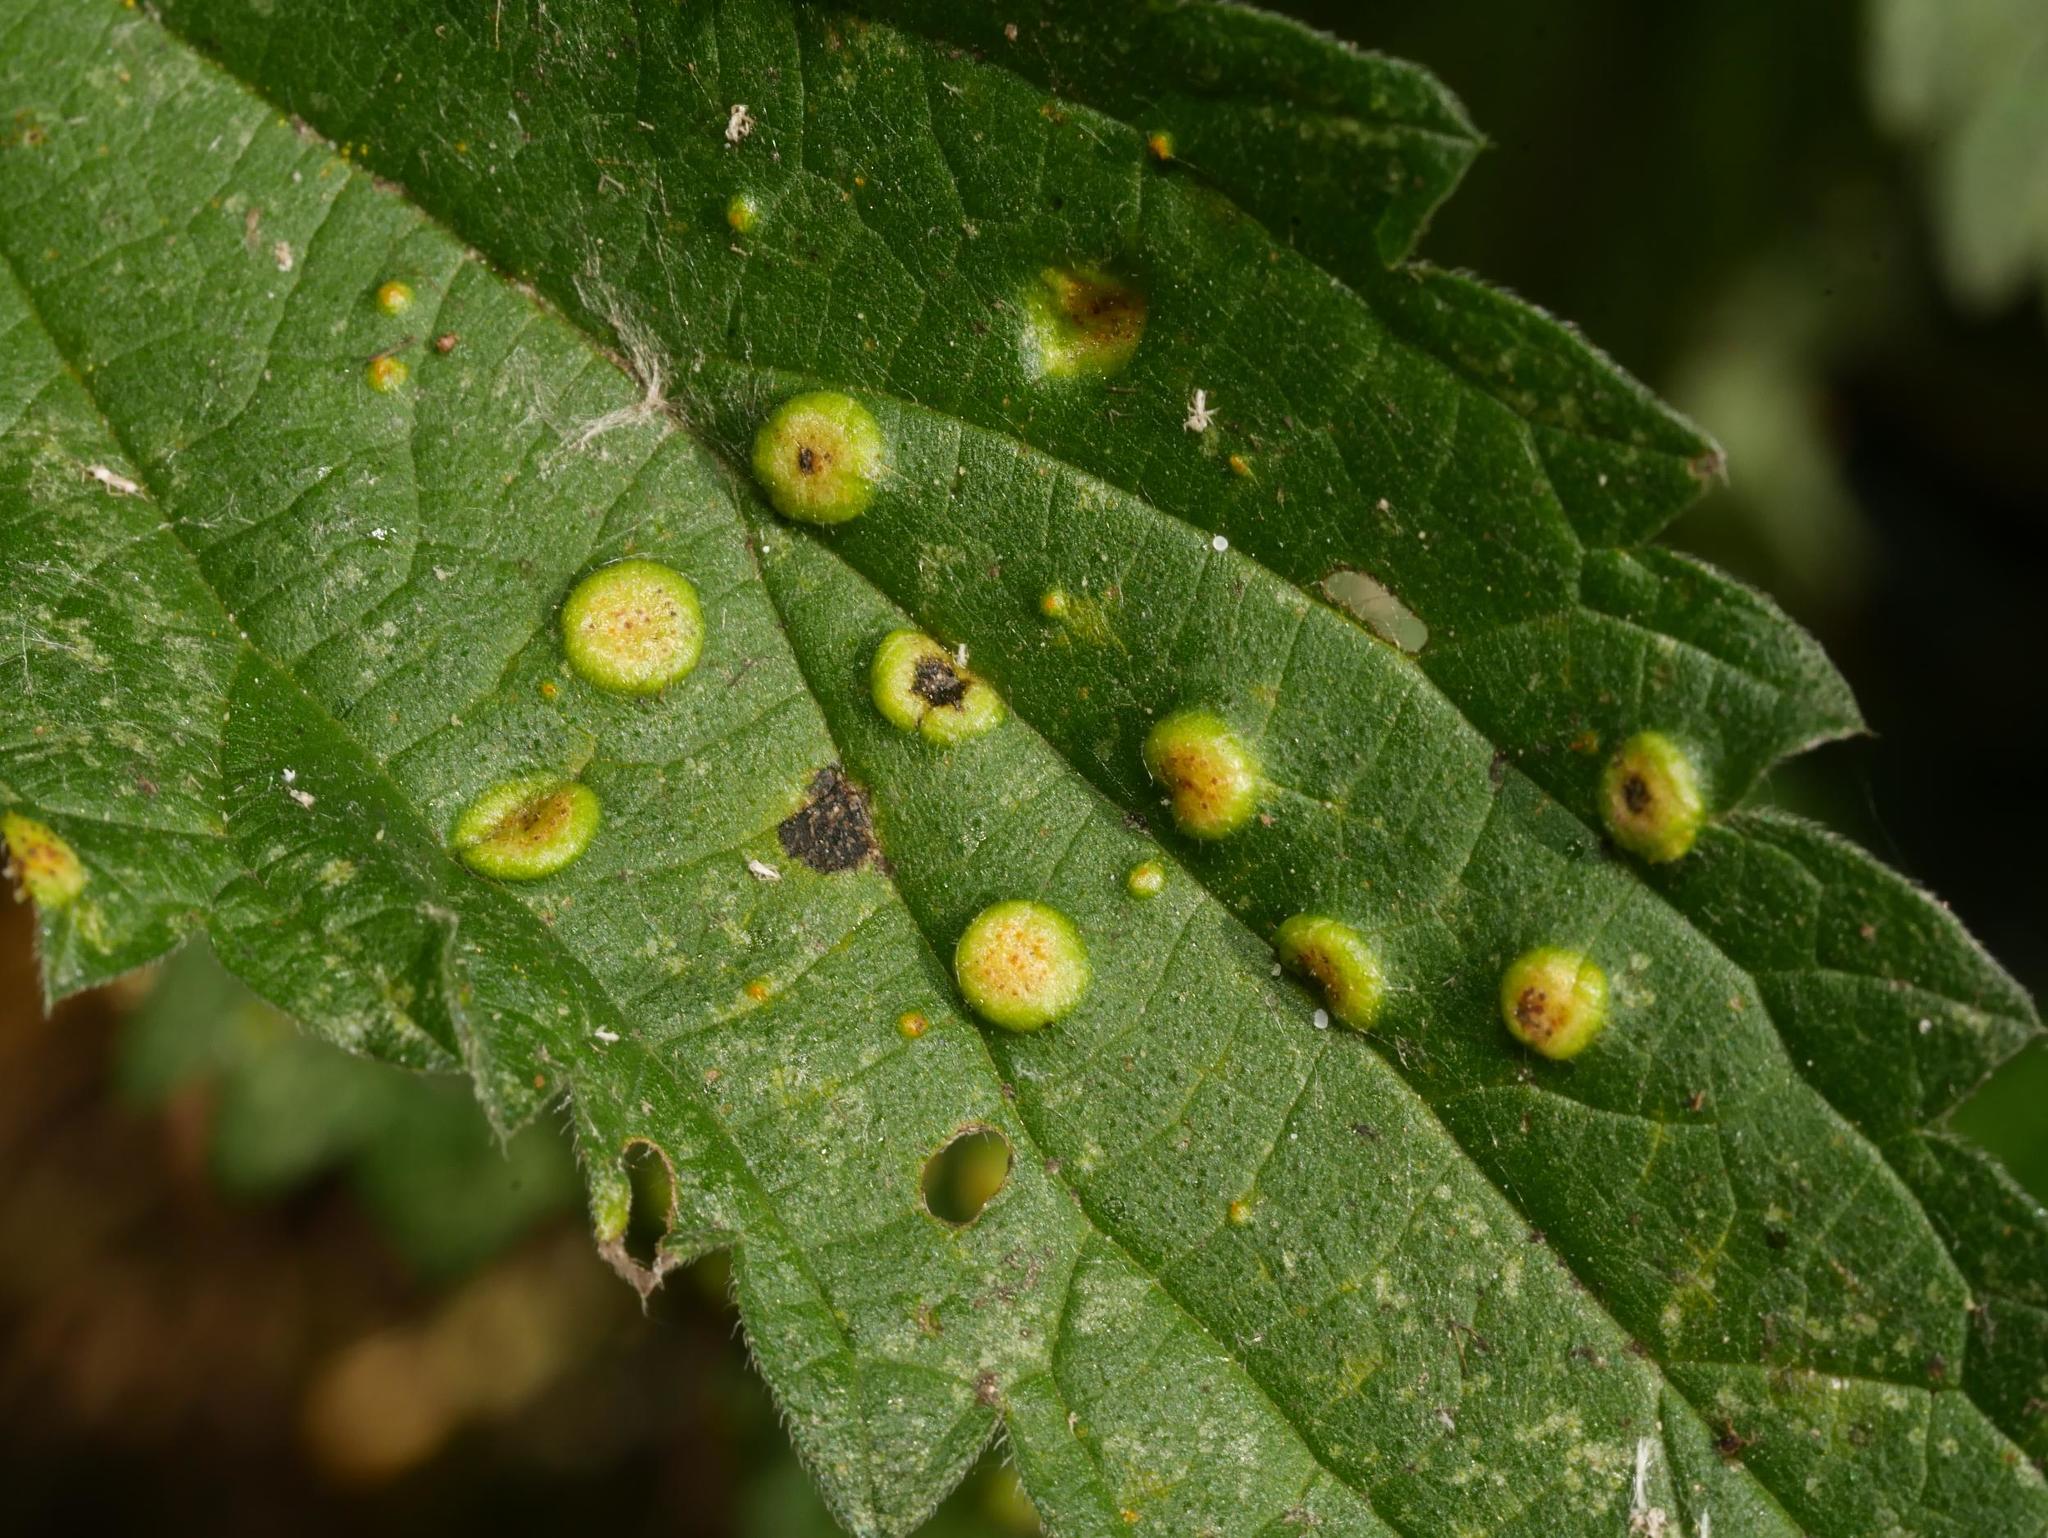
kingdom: Fungi
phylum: Basidiomycota
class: Pucciniomycetes
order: Pucciniales
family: Pucciniaceae
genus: Puccinia
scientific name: Puccinia urticata
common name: Nettle clustercup rust fungus
